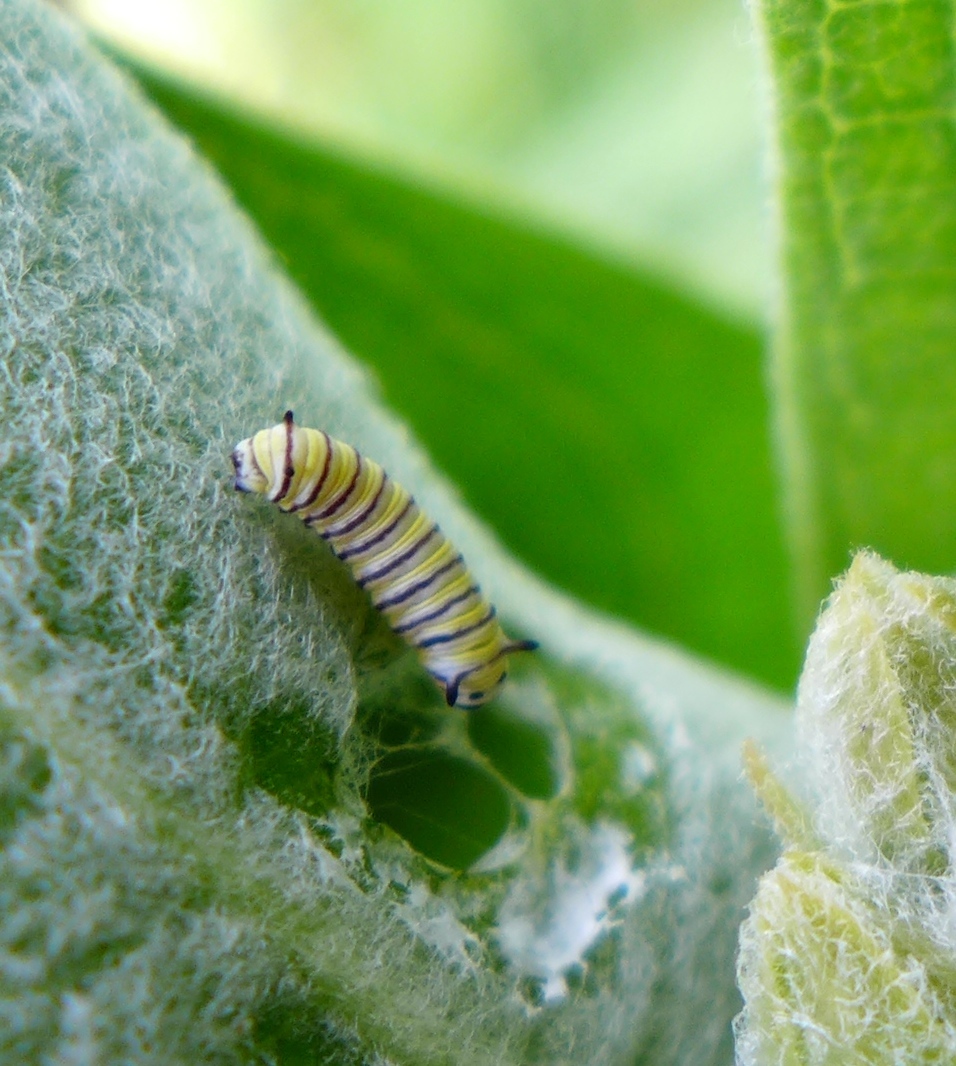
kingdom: Animalia
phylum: Arthropoda
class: Insecta
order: Lepidoptera
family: Nymphalidae
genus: Danaus
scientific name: Danaus plexippus
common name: Monarch
